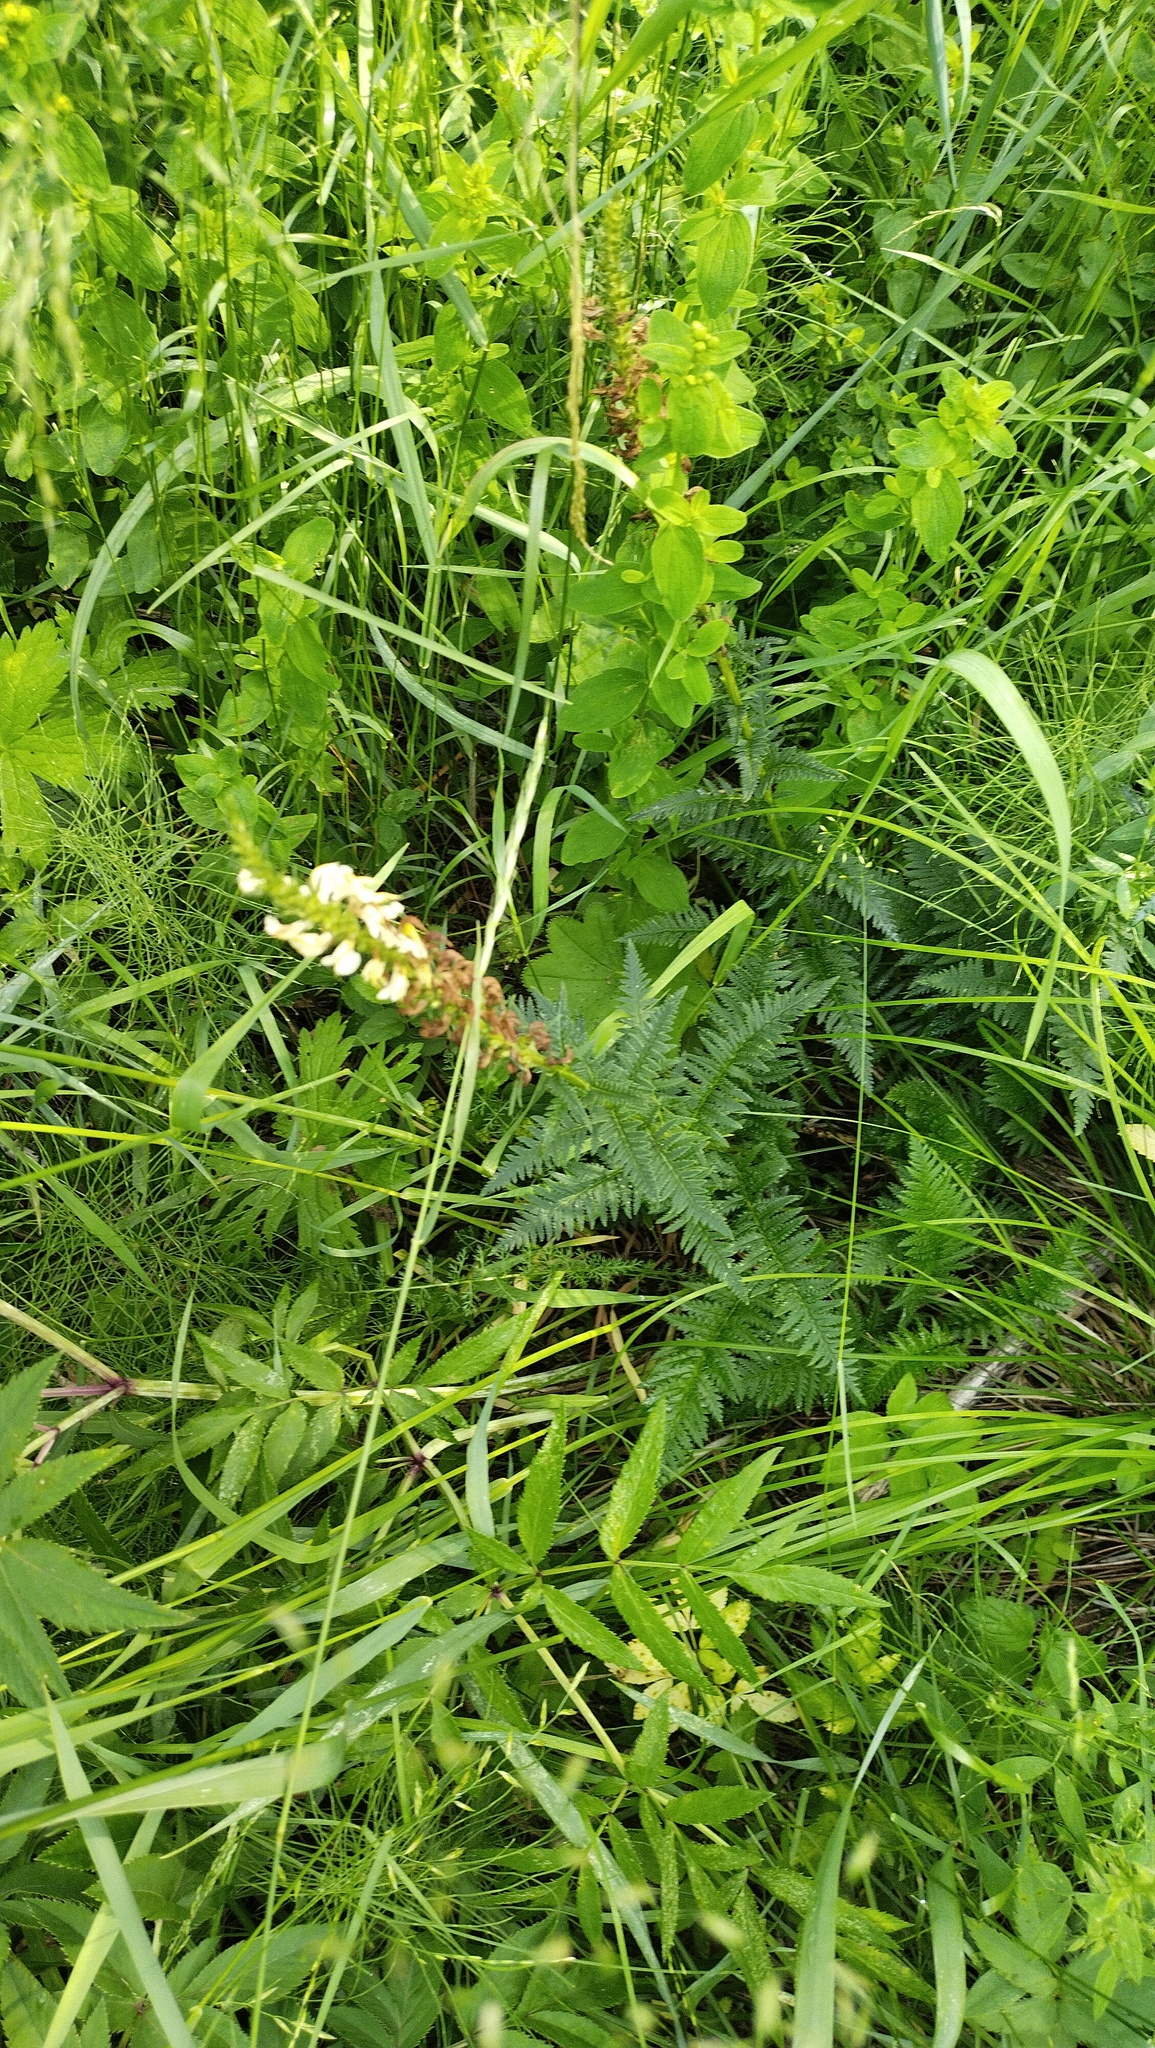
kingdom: Plantae
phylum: Tracheophyta
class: Magnoliopsida
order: Lamiales
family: Orobanchaceae
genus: Pedicularis
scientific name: Pedicularis sibirica
